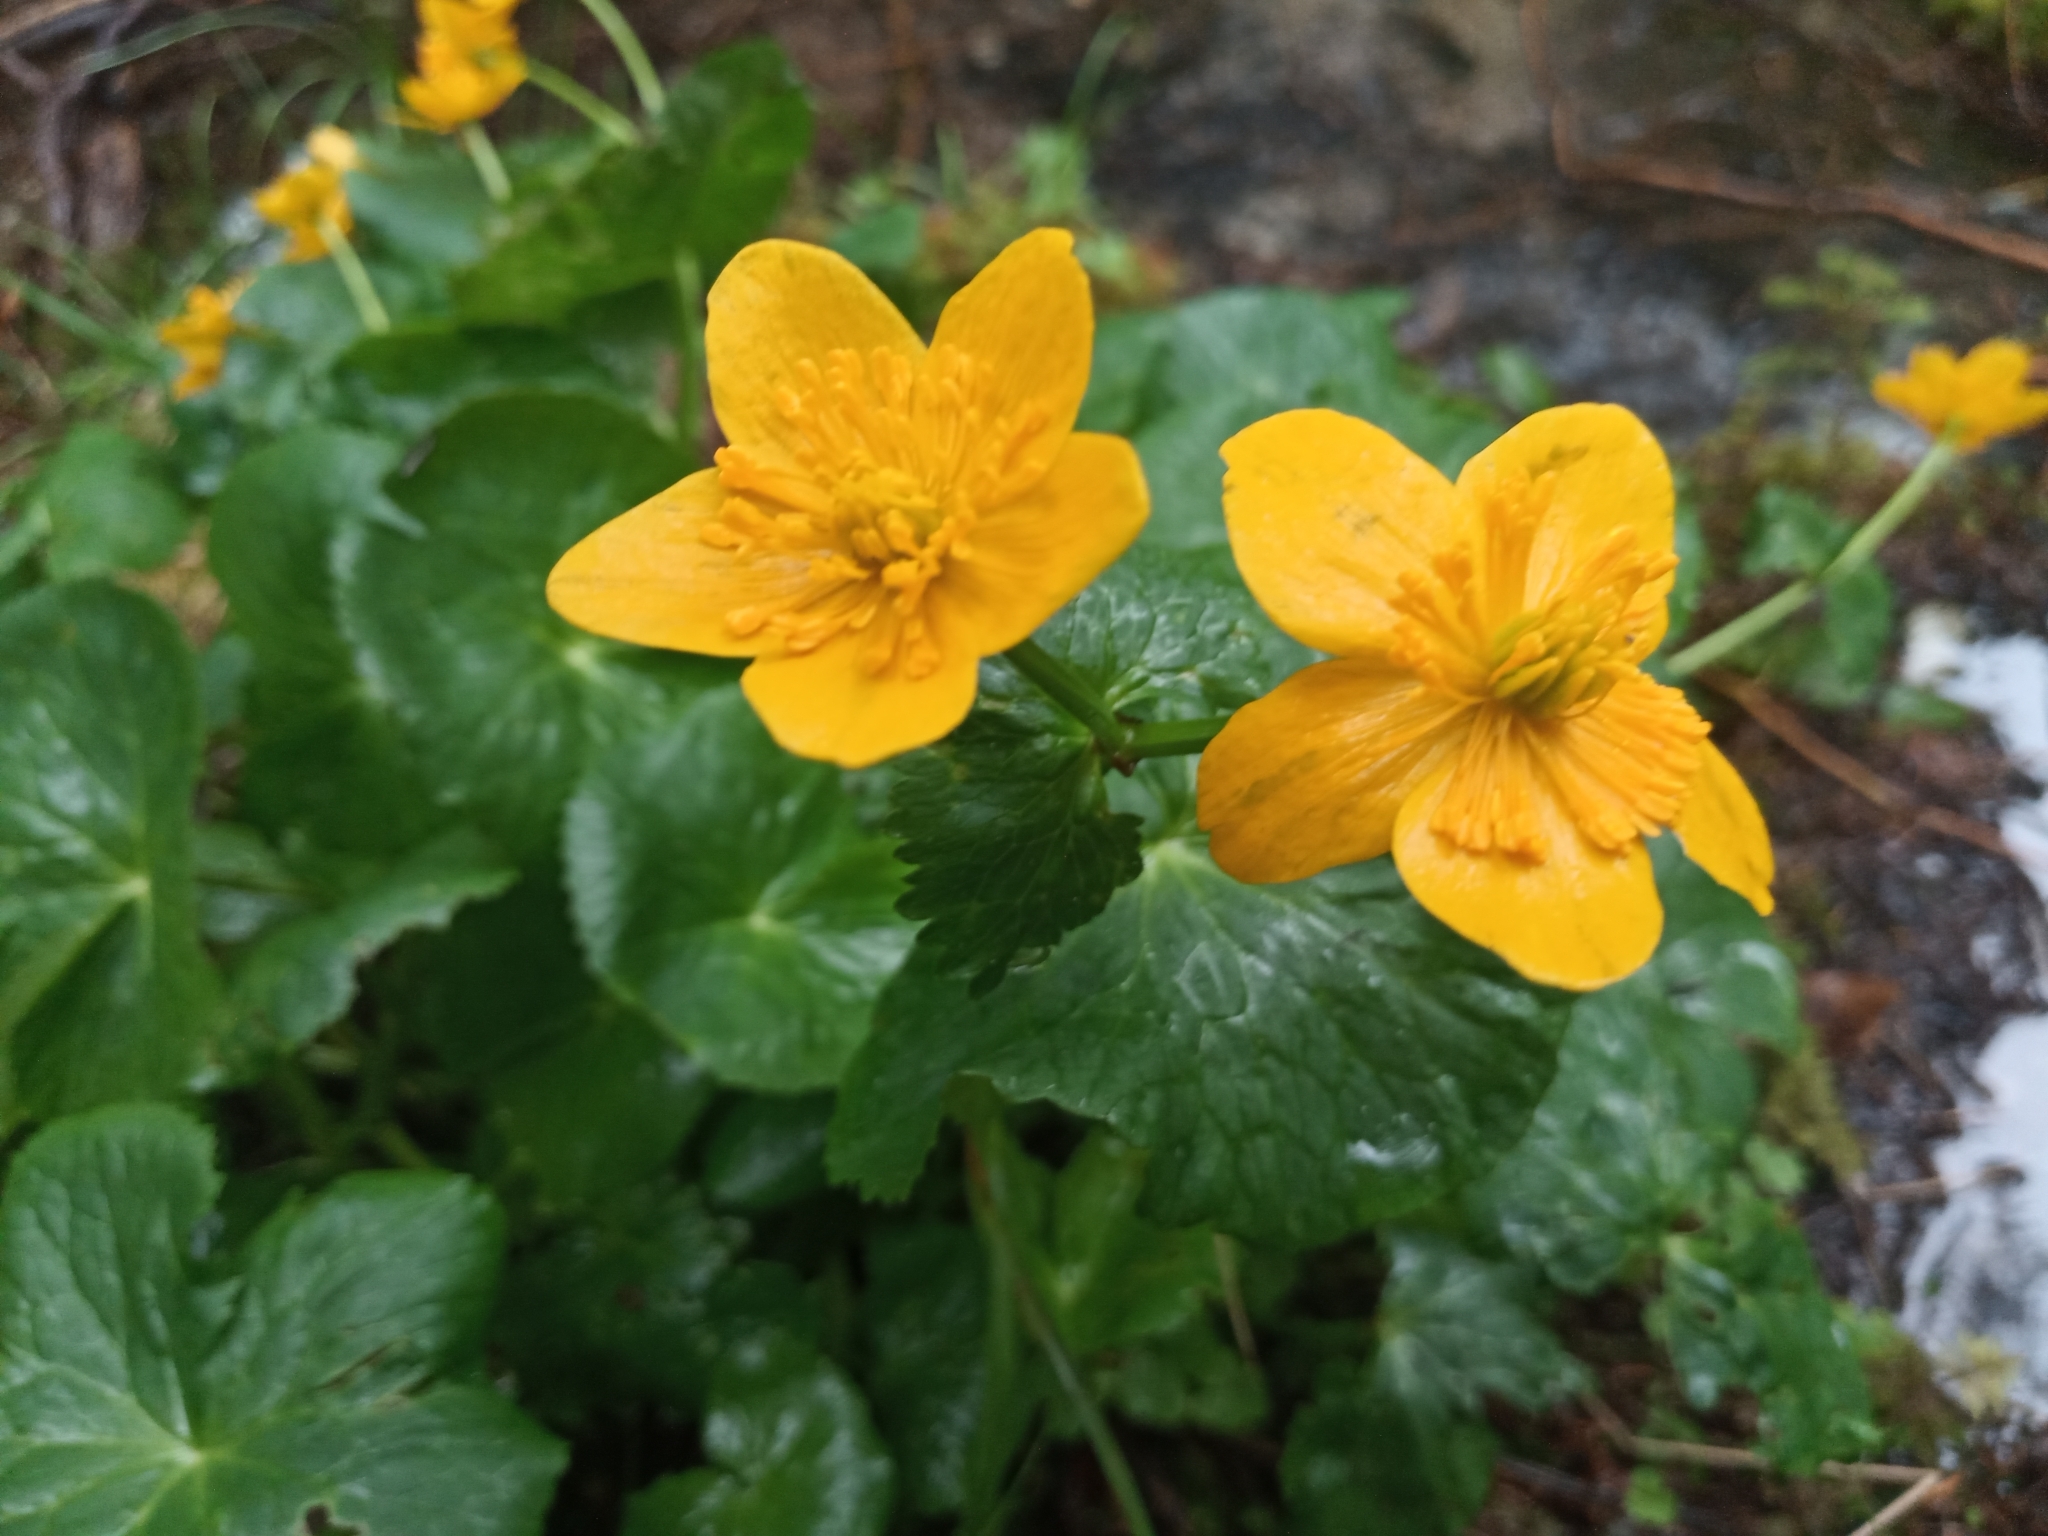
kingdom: Plantae
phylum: Tracheophyta
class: Magnoliopsida
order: Ranunculales
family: Ranunculaceae
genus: Caltha
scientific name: Caltha palustris
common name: Marsh marigold
